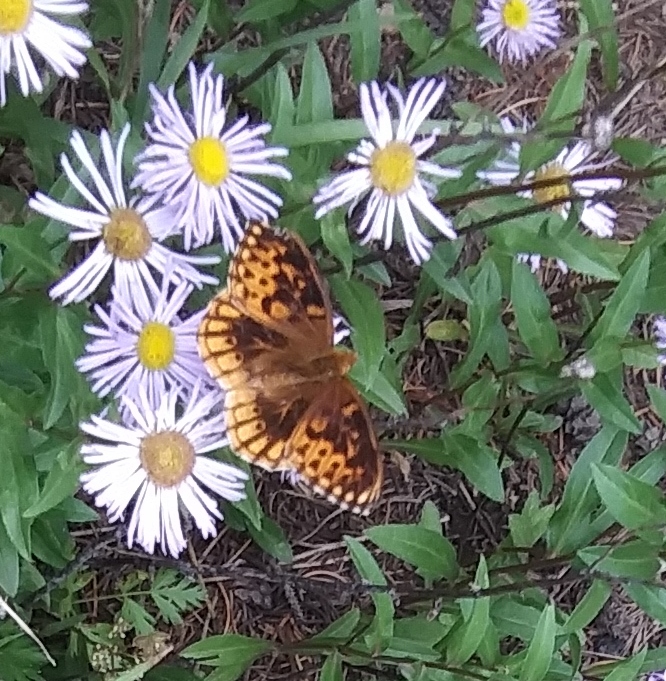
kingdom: Animalia
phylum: Arthropoda
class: Insecta
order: Lepidoptera
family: Nymphalidae
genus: Argynnis
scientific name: Argynnis
